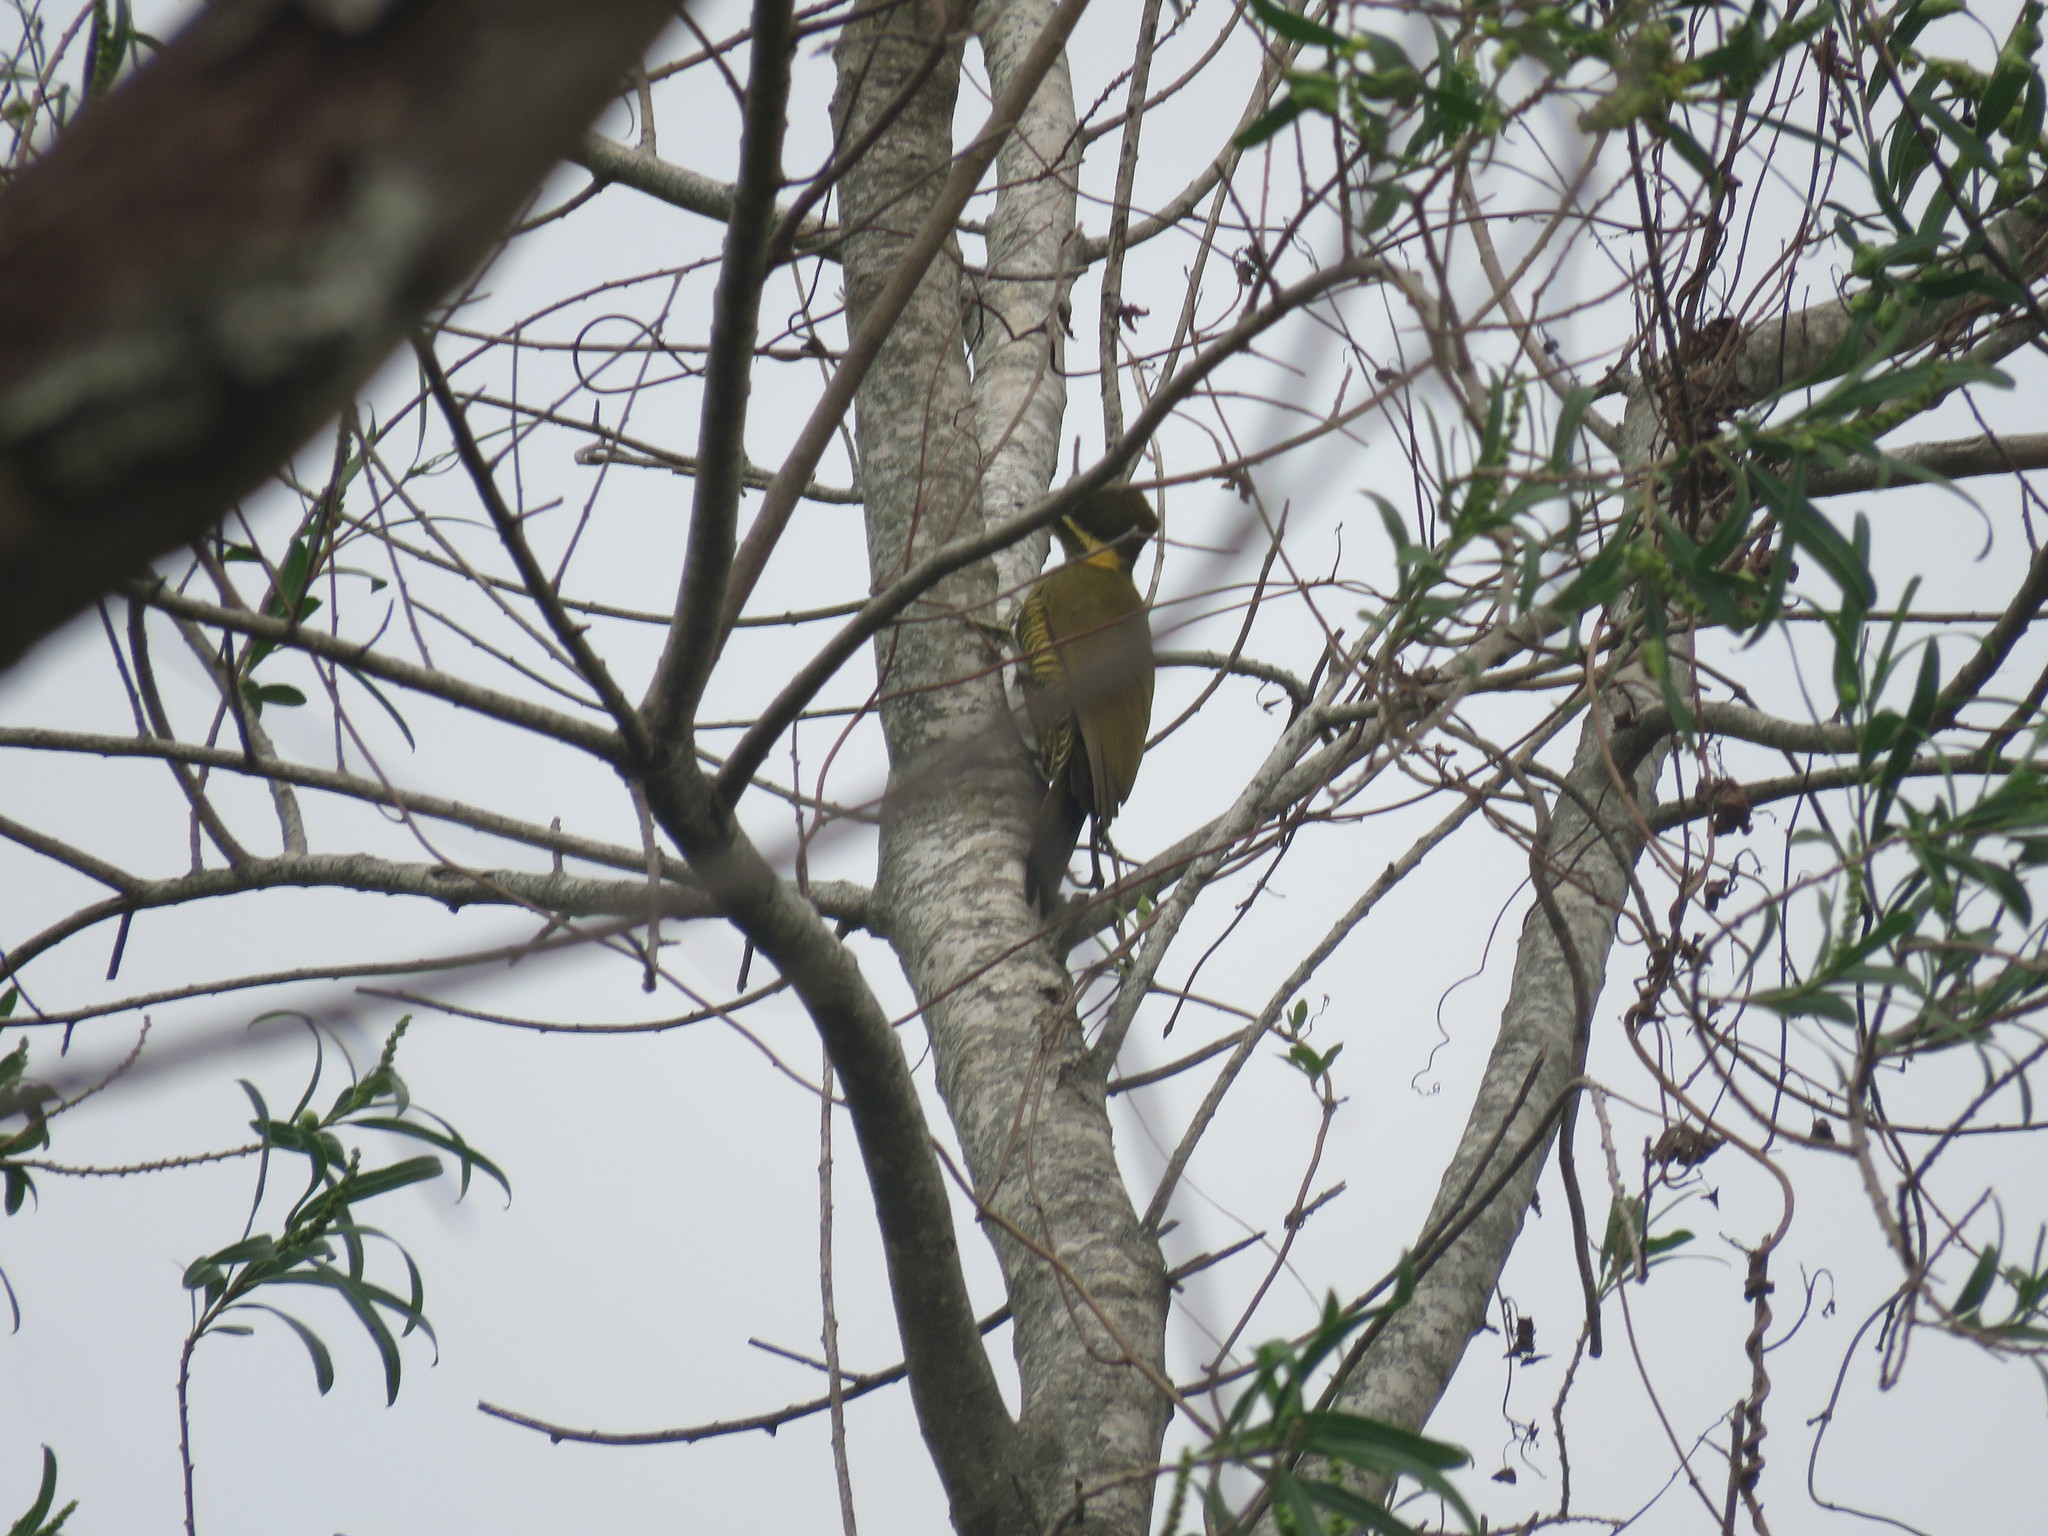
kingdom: Animalia
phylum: Chordata
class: Aves
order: Piciformes
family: Picidae
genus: Piculus
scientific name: Piculus chrysochloros
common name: Golden-green woodpecker
